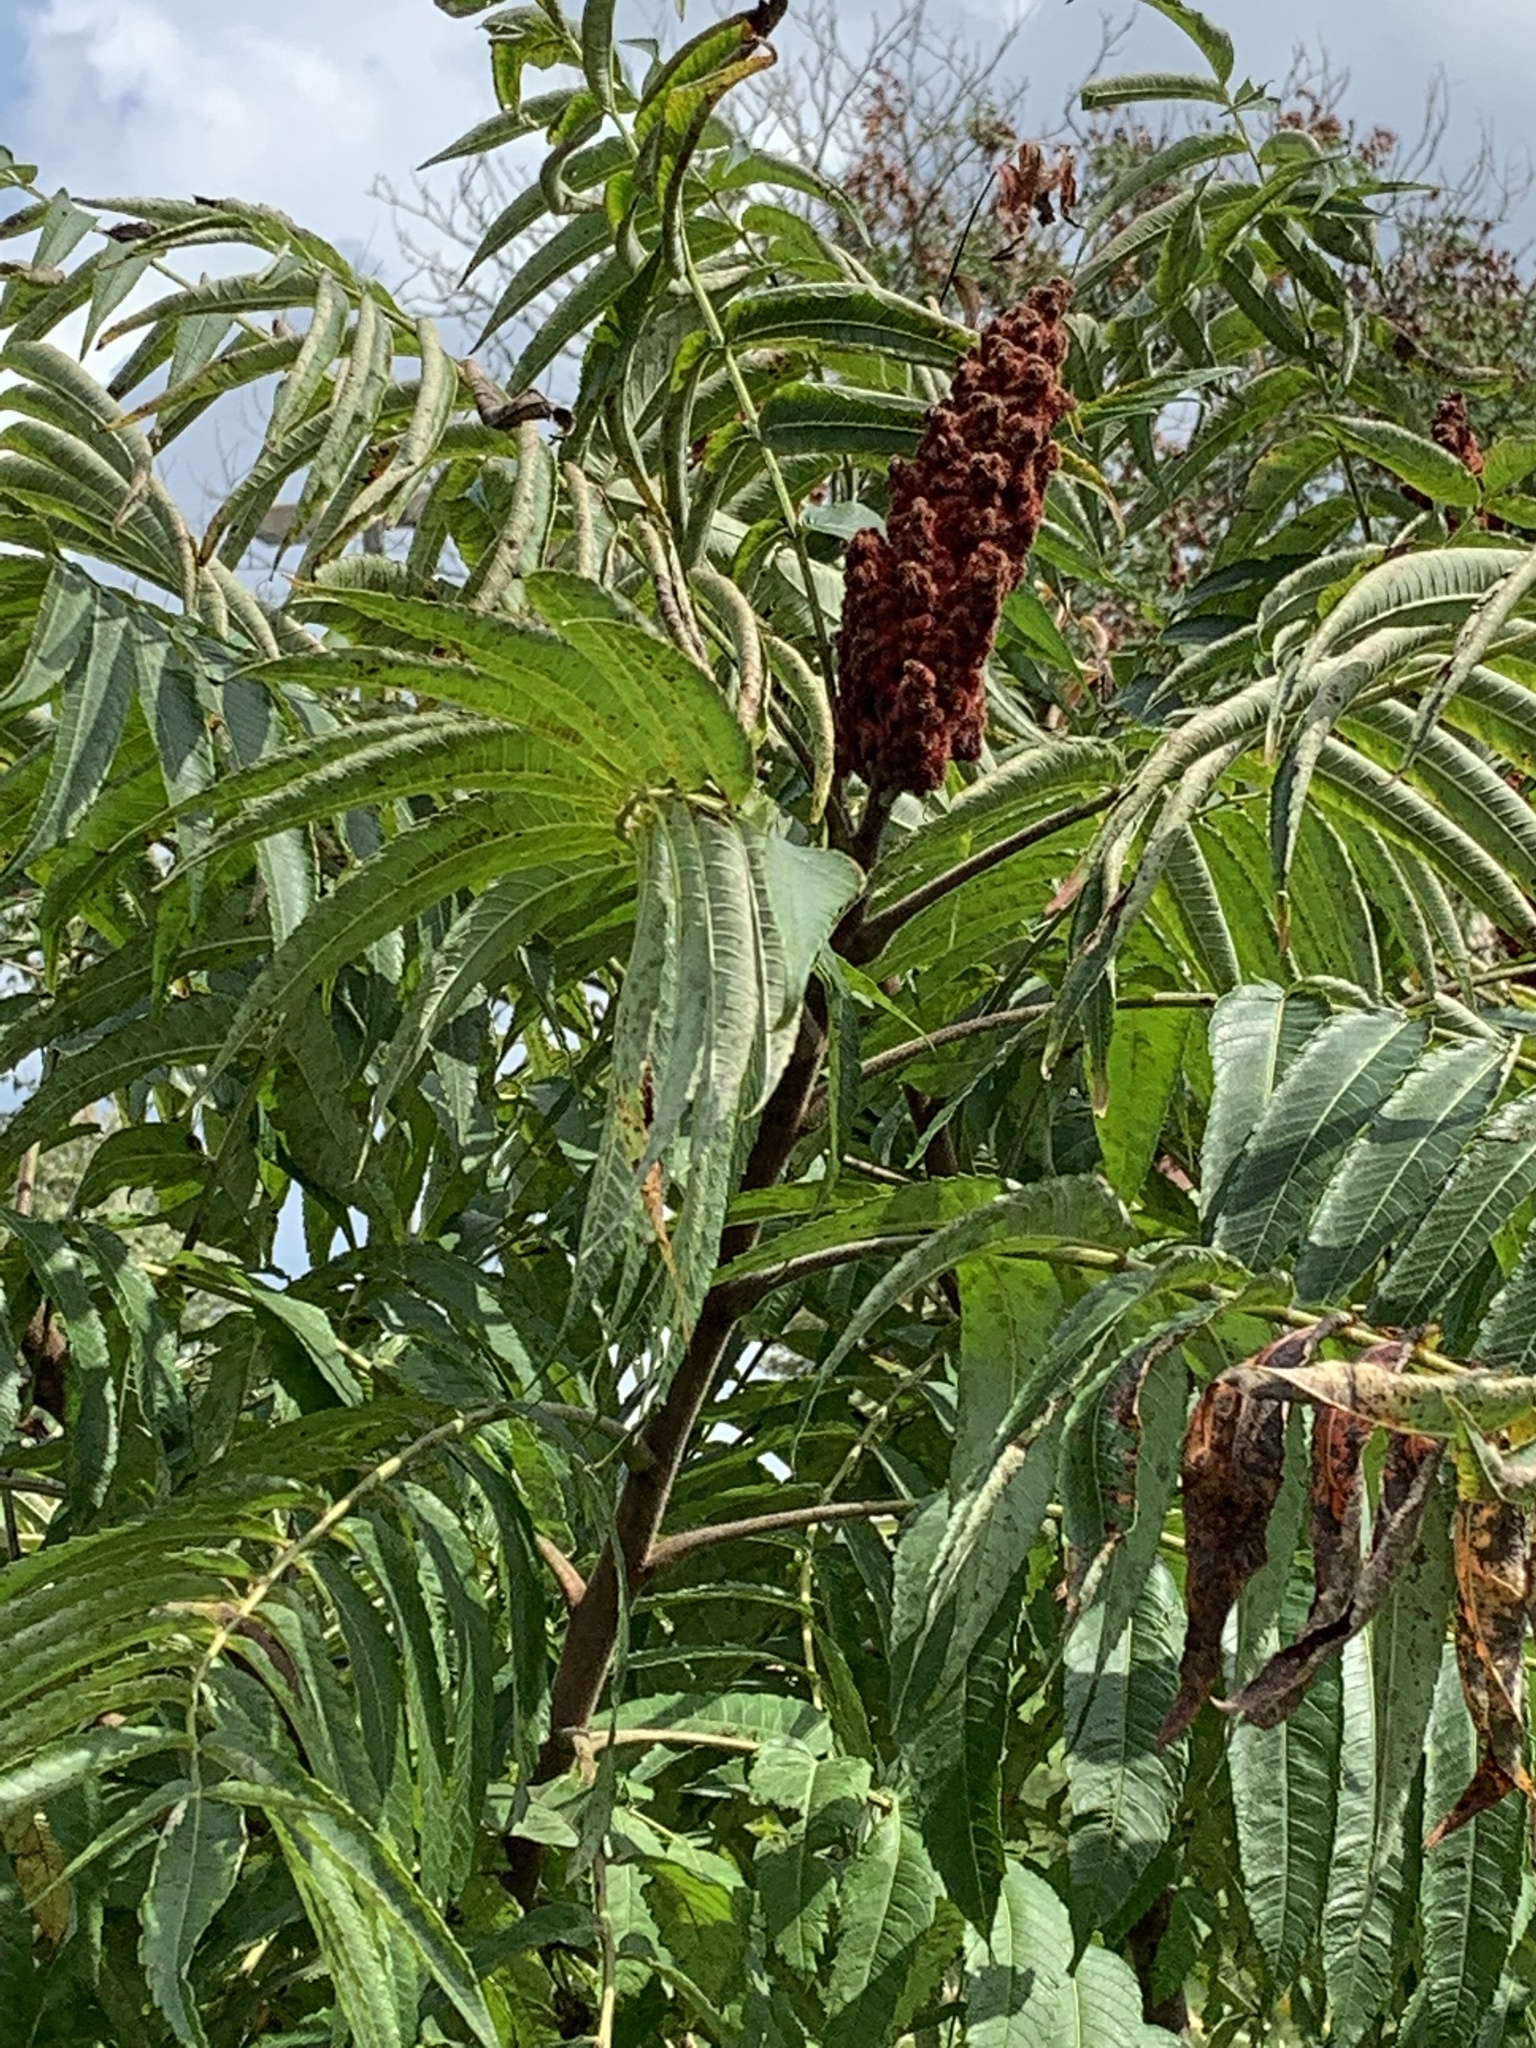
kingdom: Plantae
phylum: Tracheophyta
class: Magnoliopsida
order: Sapindales
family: Anacardiaceae
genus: Rhus
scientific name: Rhus typhina
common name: Staghorn sumac
